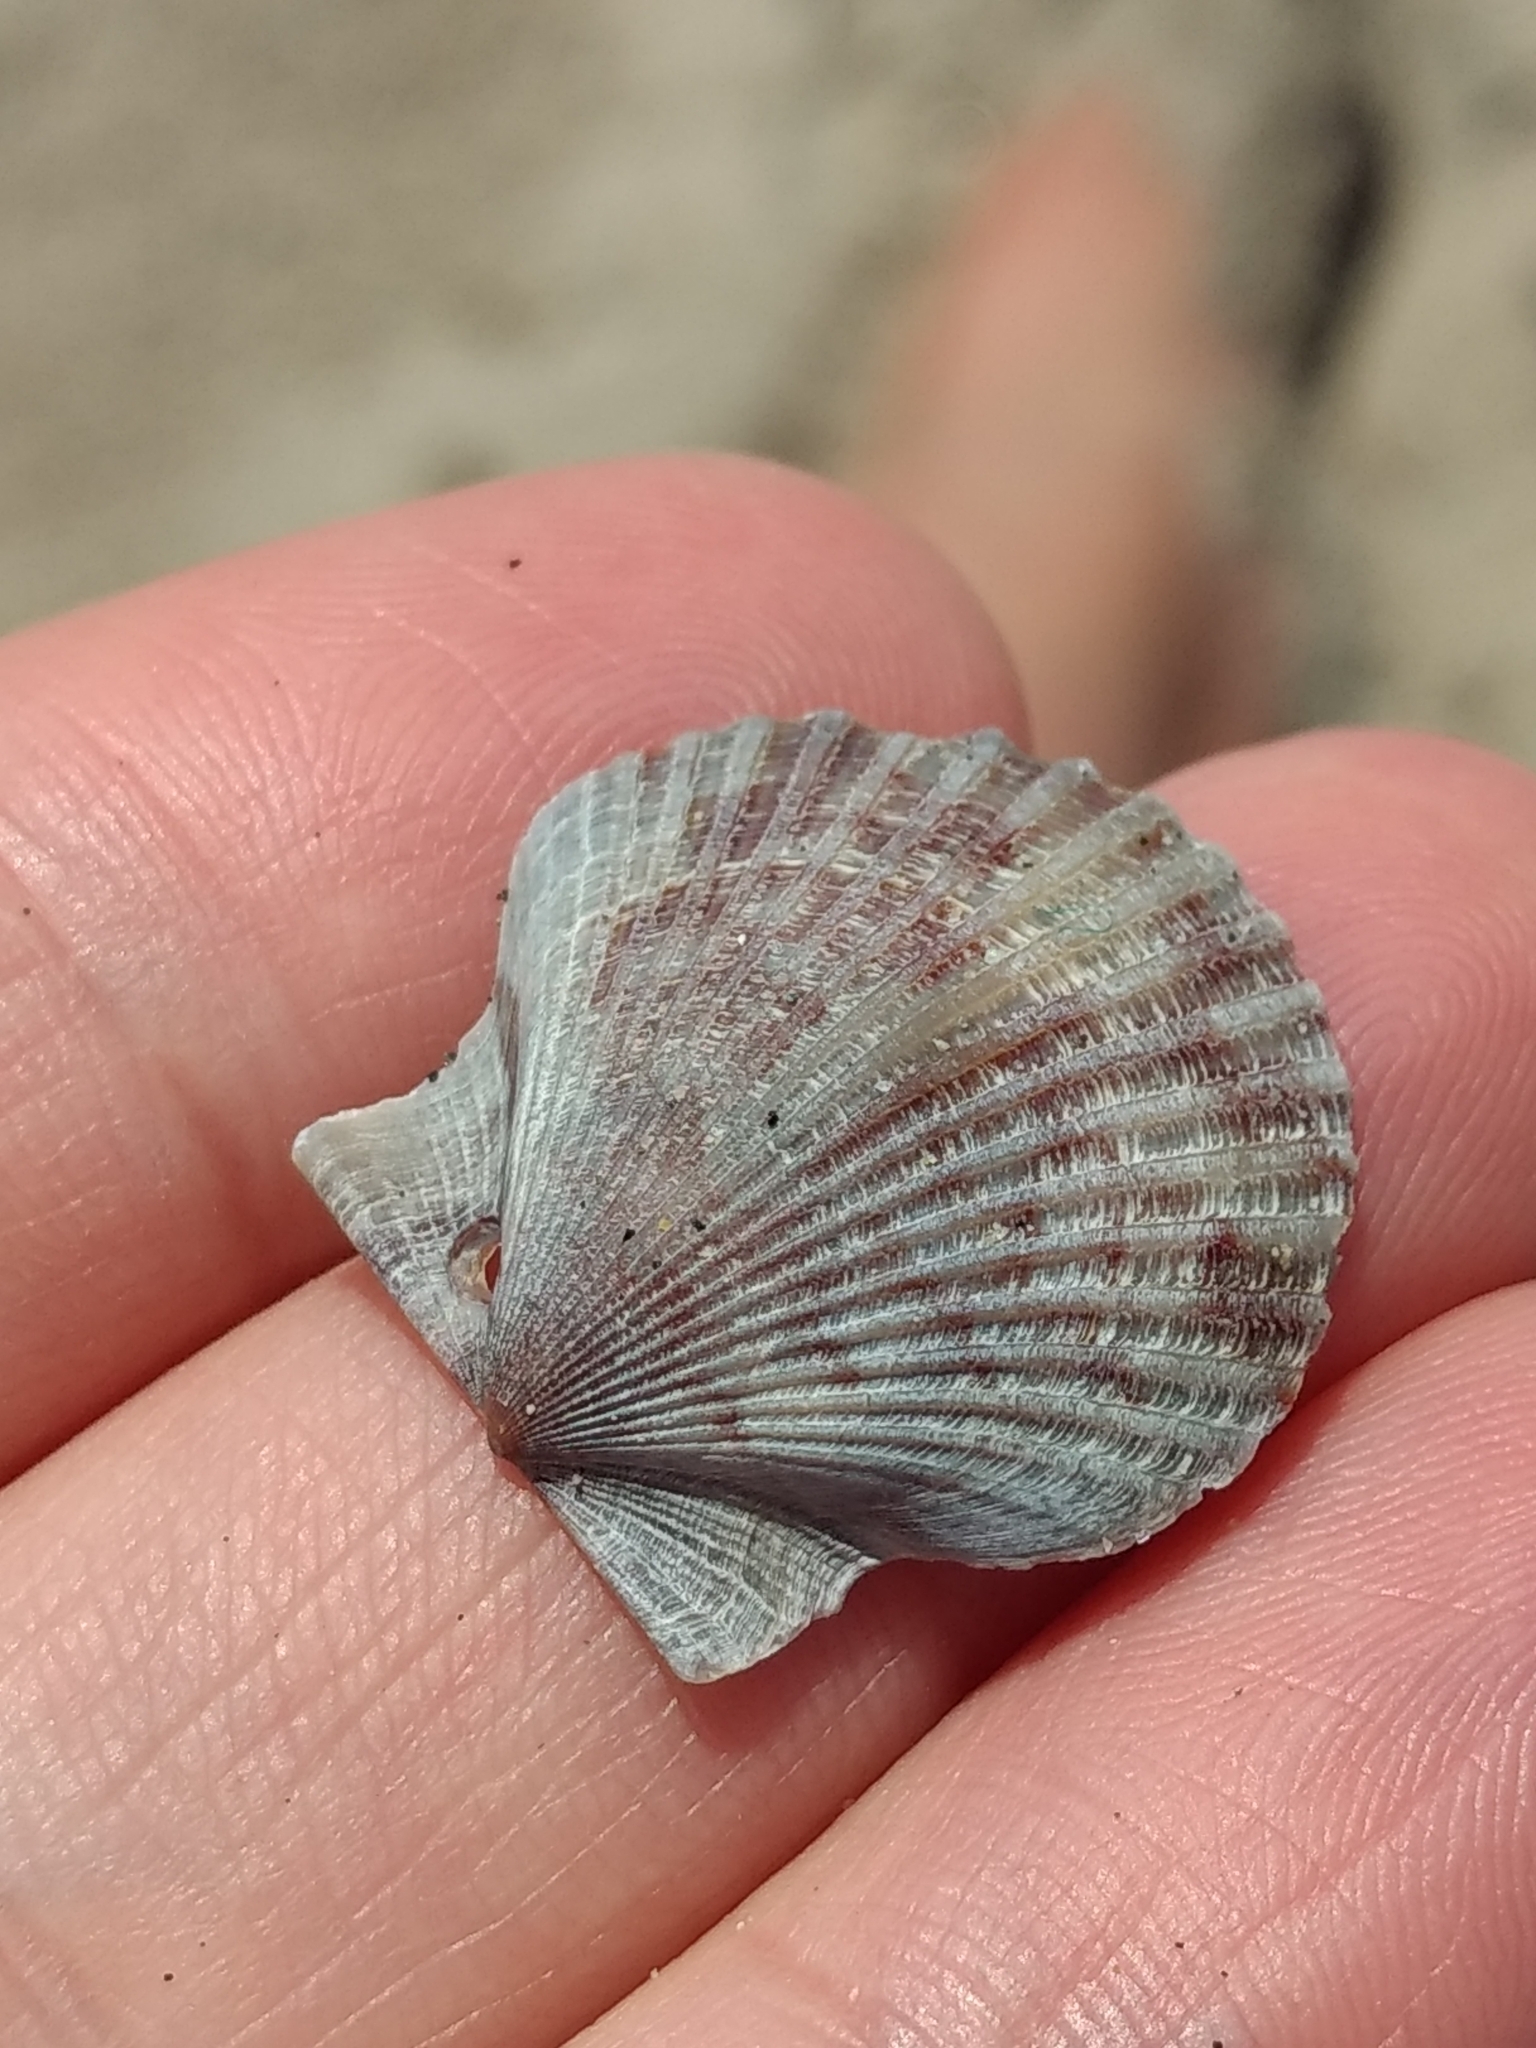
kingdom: Animalia
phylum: Mollusca
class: Bivalvia
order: Pectinida
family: Pectinidae
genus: Argopecten
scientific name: Argopecten ventricosus
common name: Catarina scallop
